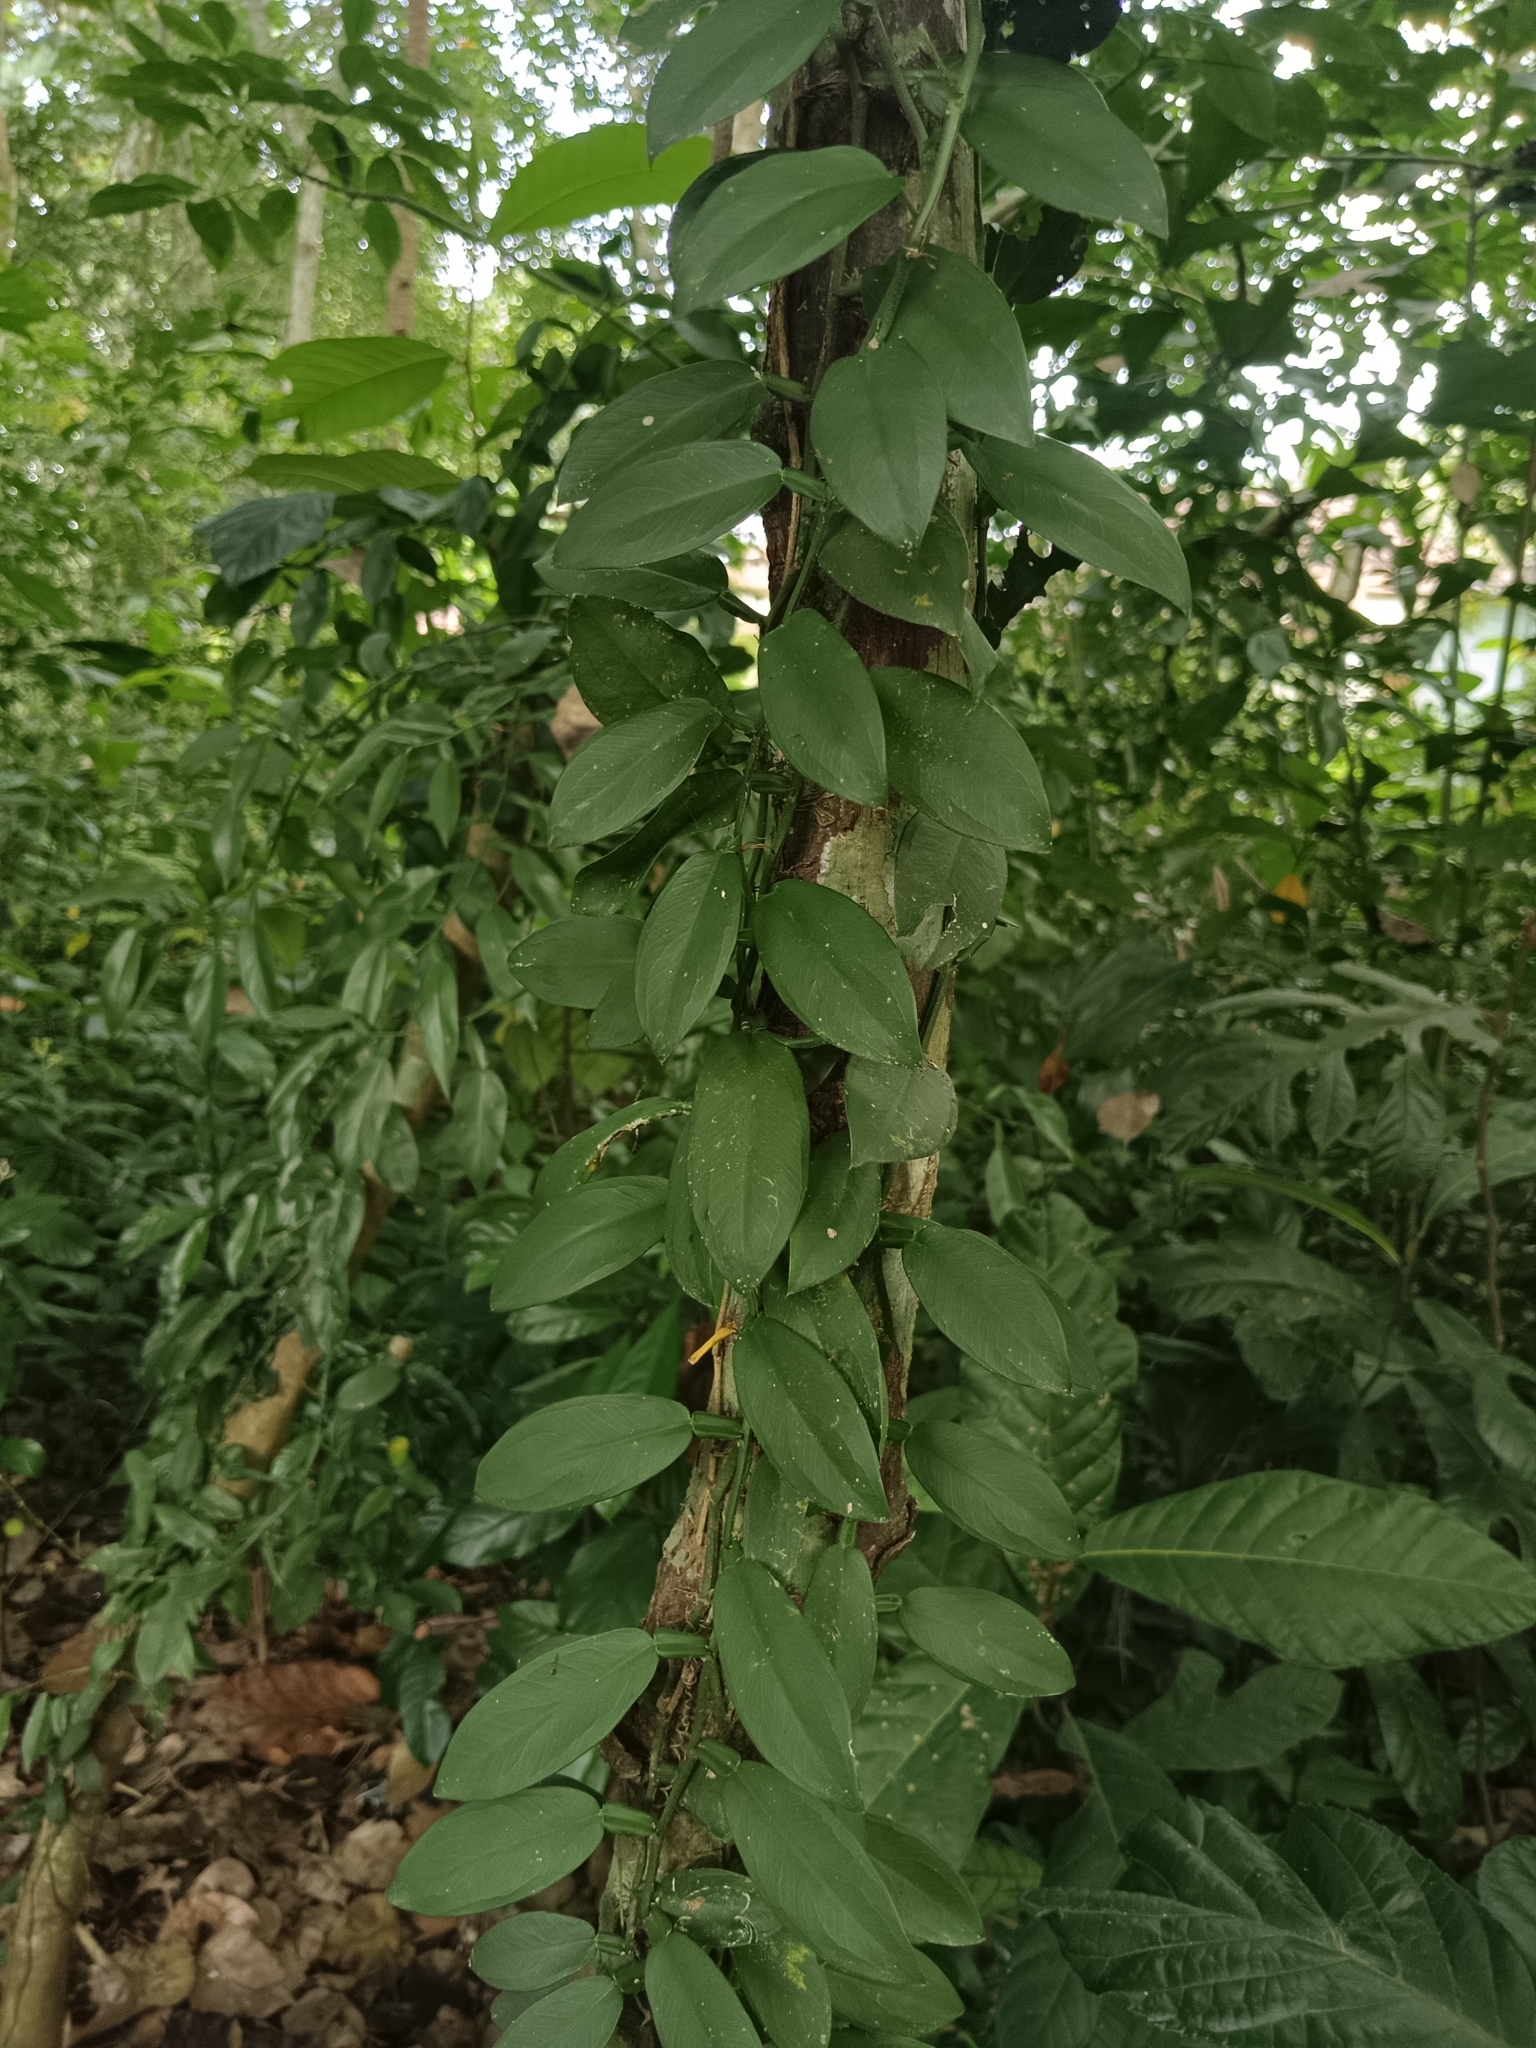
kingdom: Plantae
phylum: Tracheophyta
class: Liliopsida
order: Alismatales
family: Araceae
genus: Pothos
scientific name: Pothos chinensis
